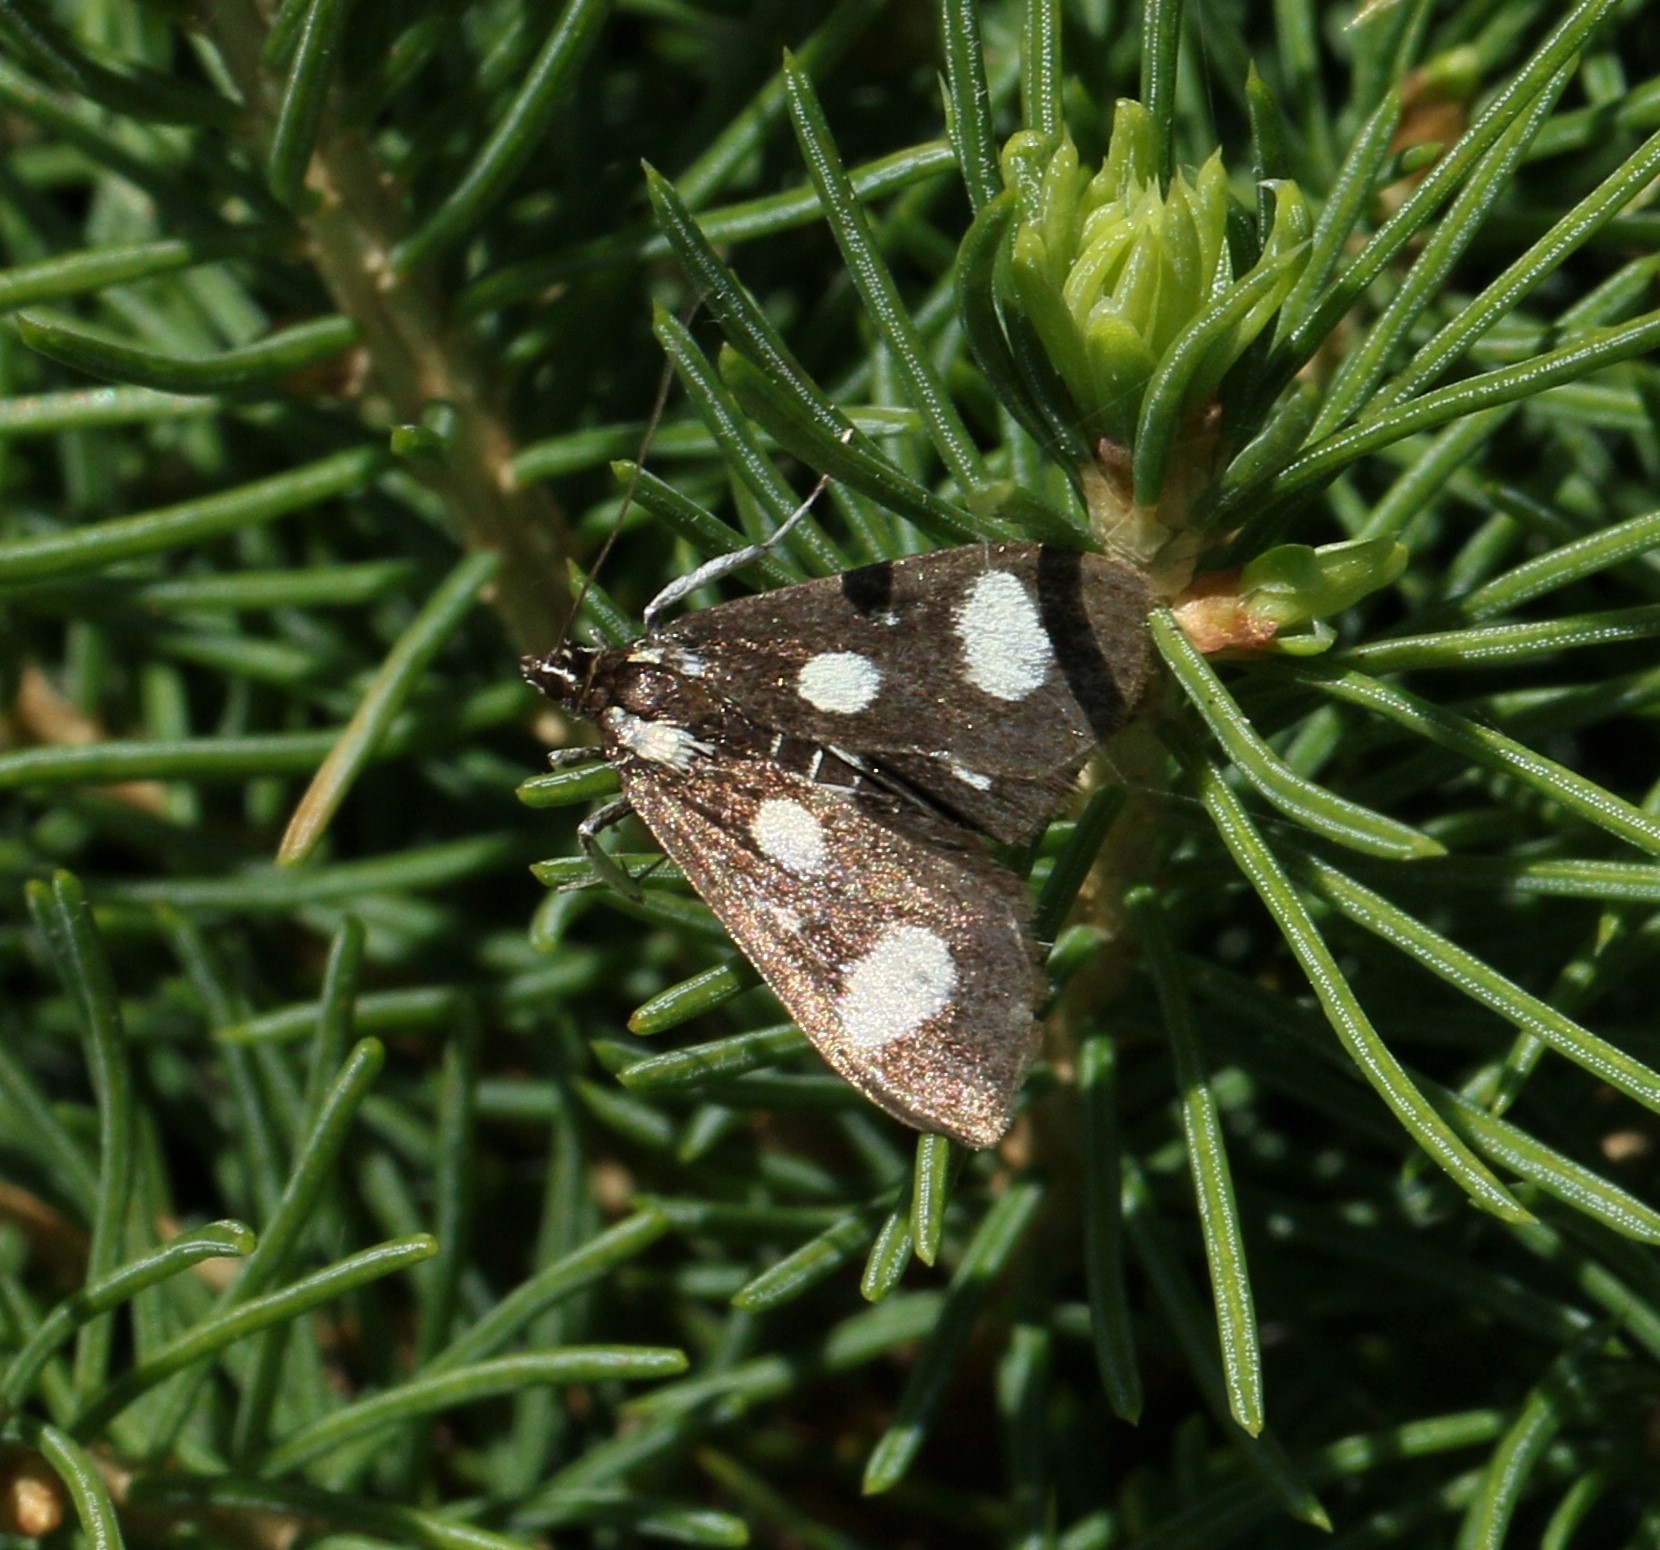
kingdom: Animalia
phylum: Arthropoda
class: Insecta
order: Lepidoptera
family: Crambidae
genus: Desmia
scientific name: Desmia
